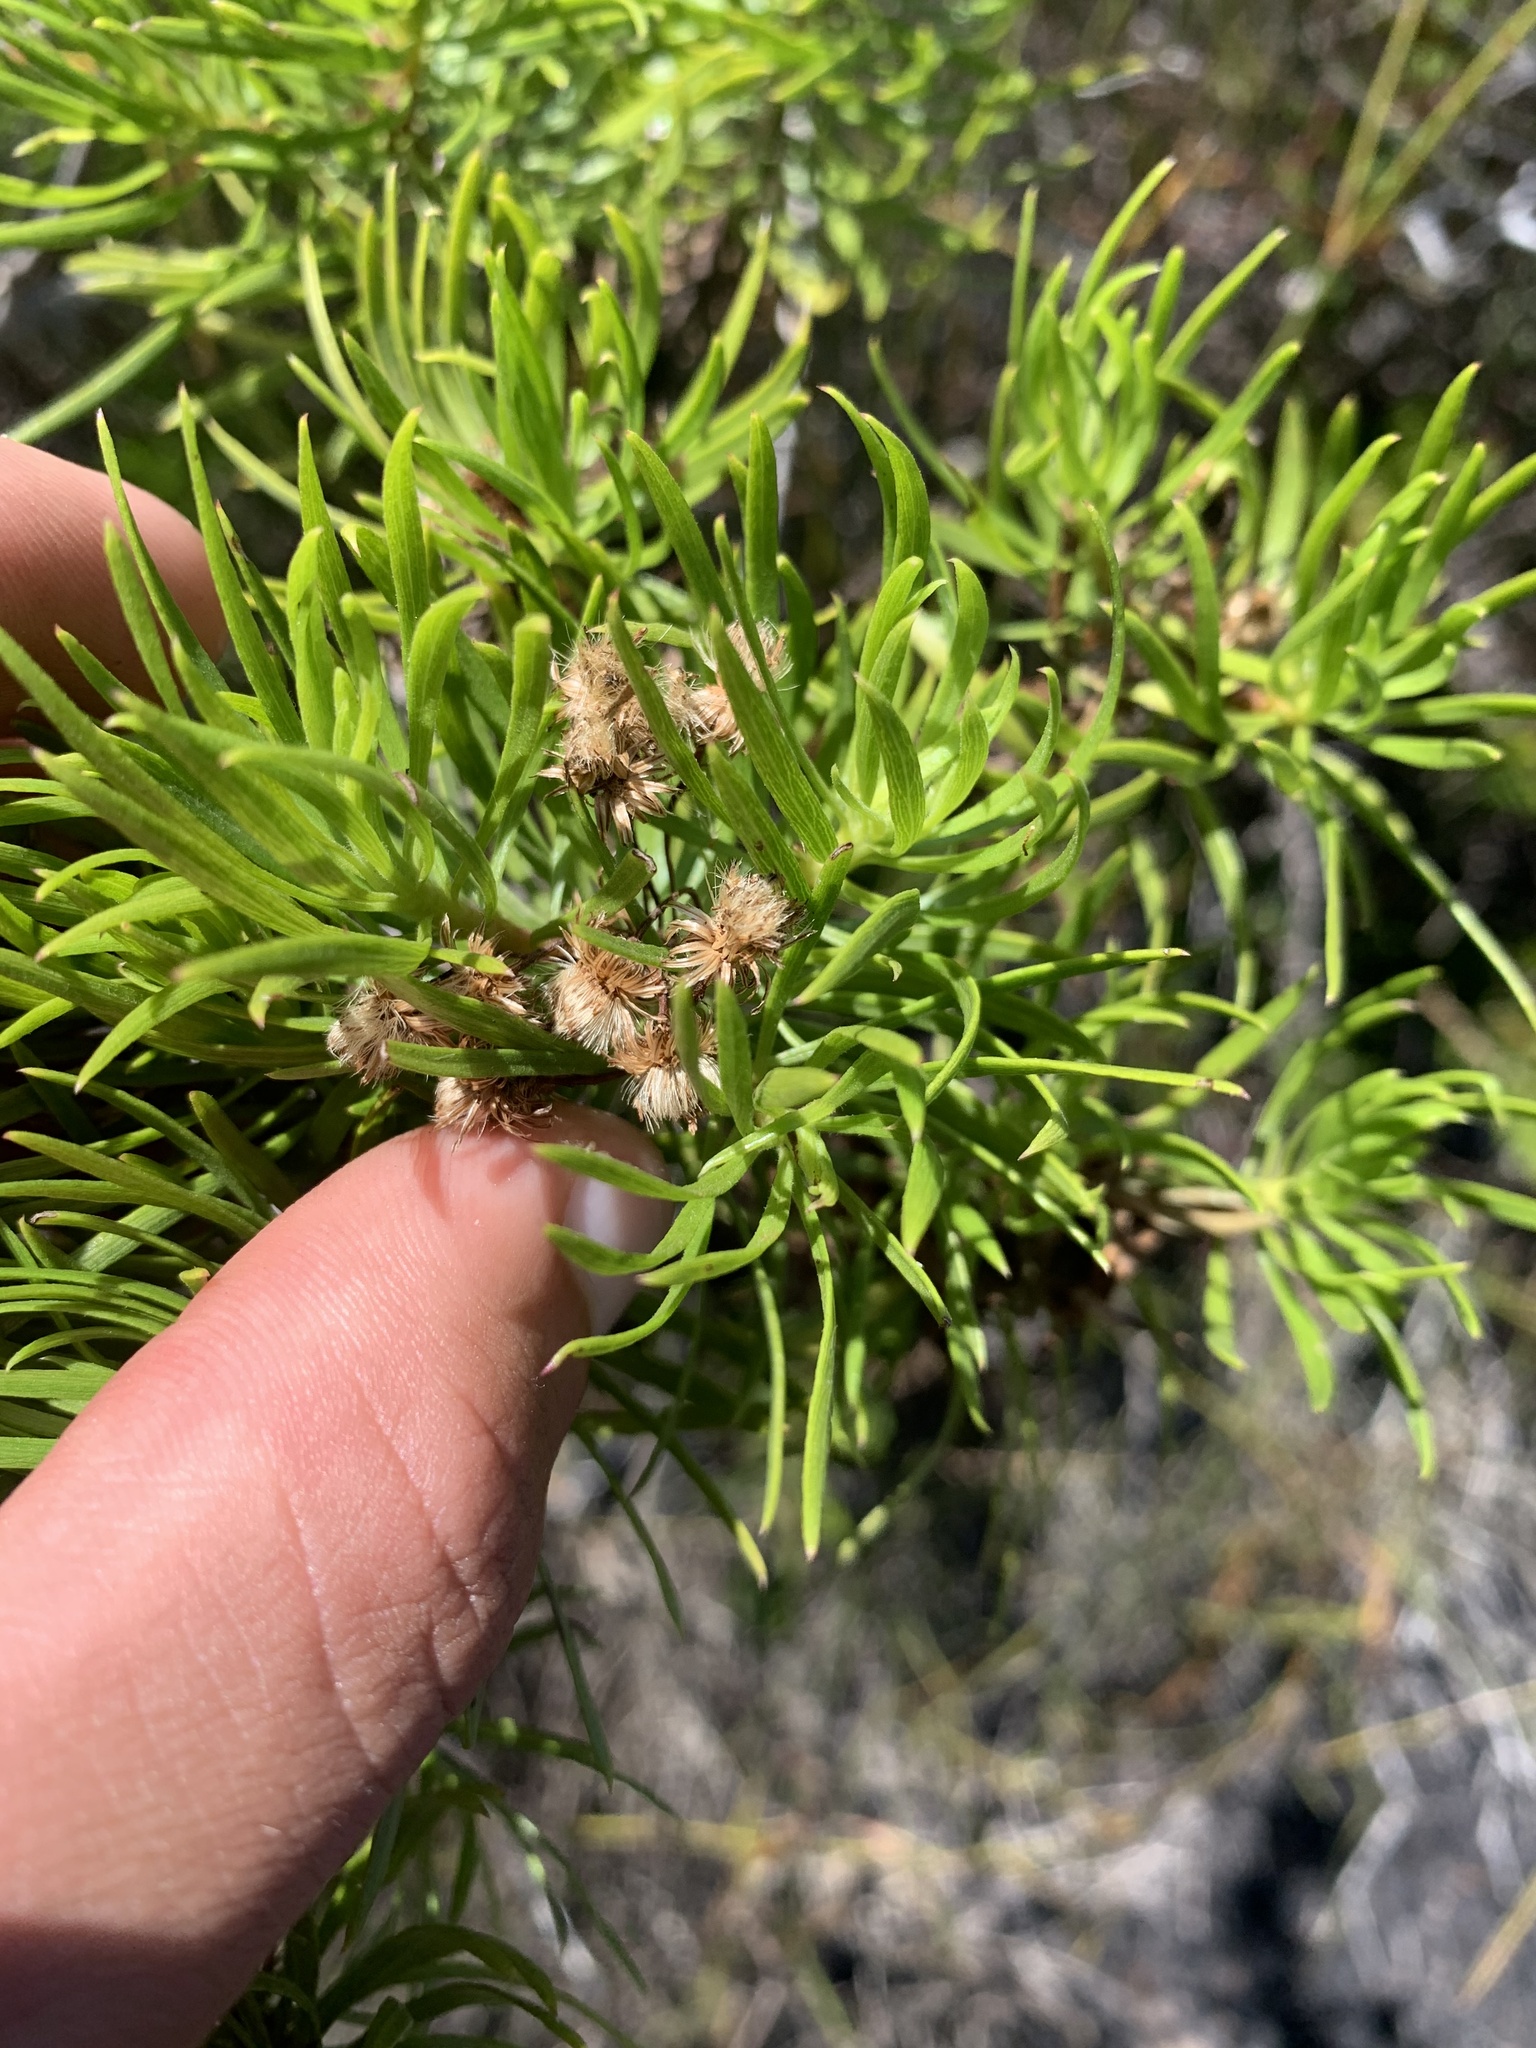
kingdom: Plantae
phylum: Tracheophyta
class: Magnoliopsida
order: Asterales
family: Asteraceae
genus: Erigeron
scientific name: Erigeron tenuifolius
